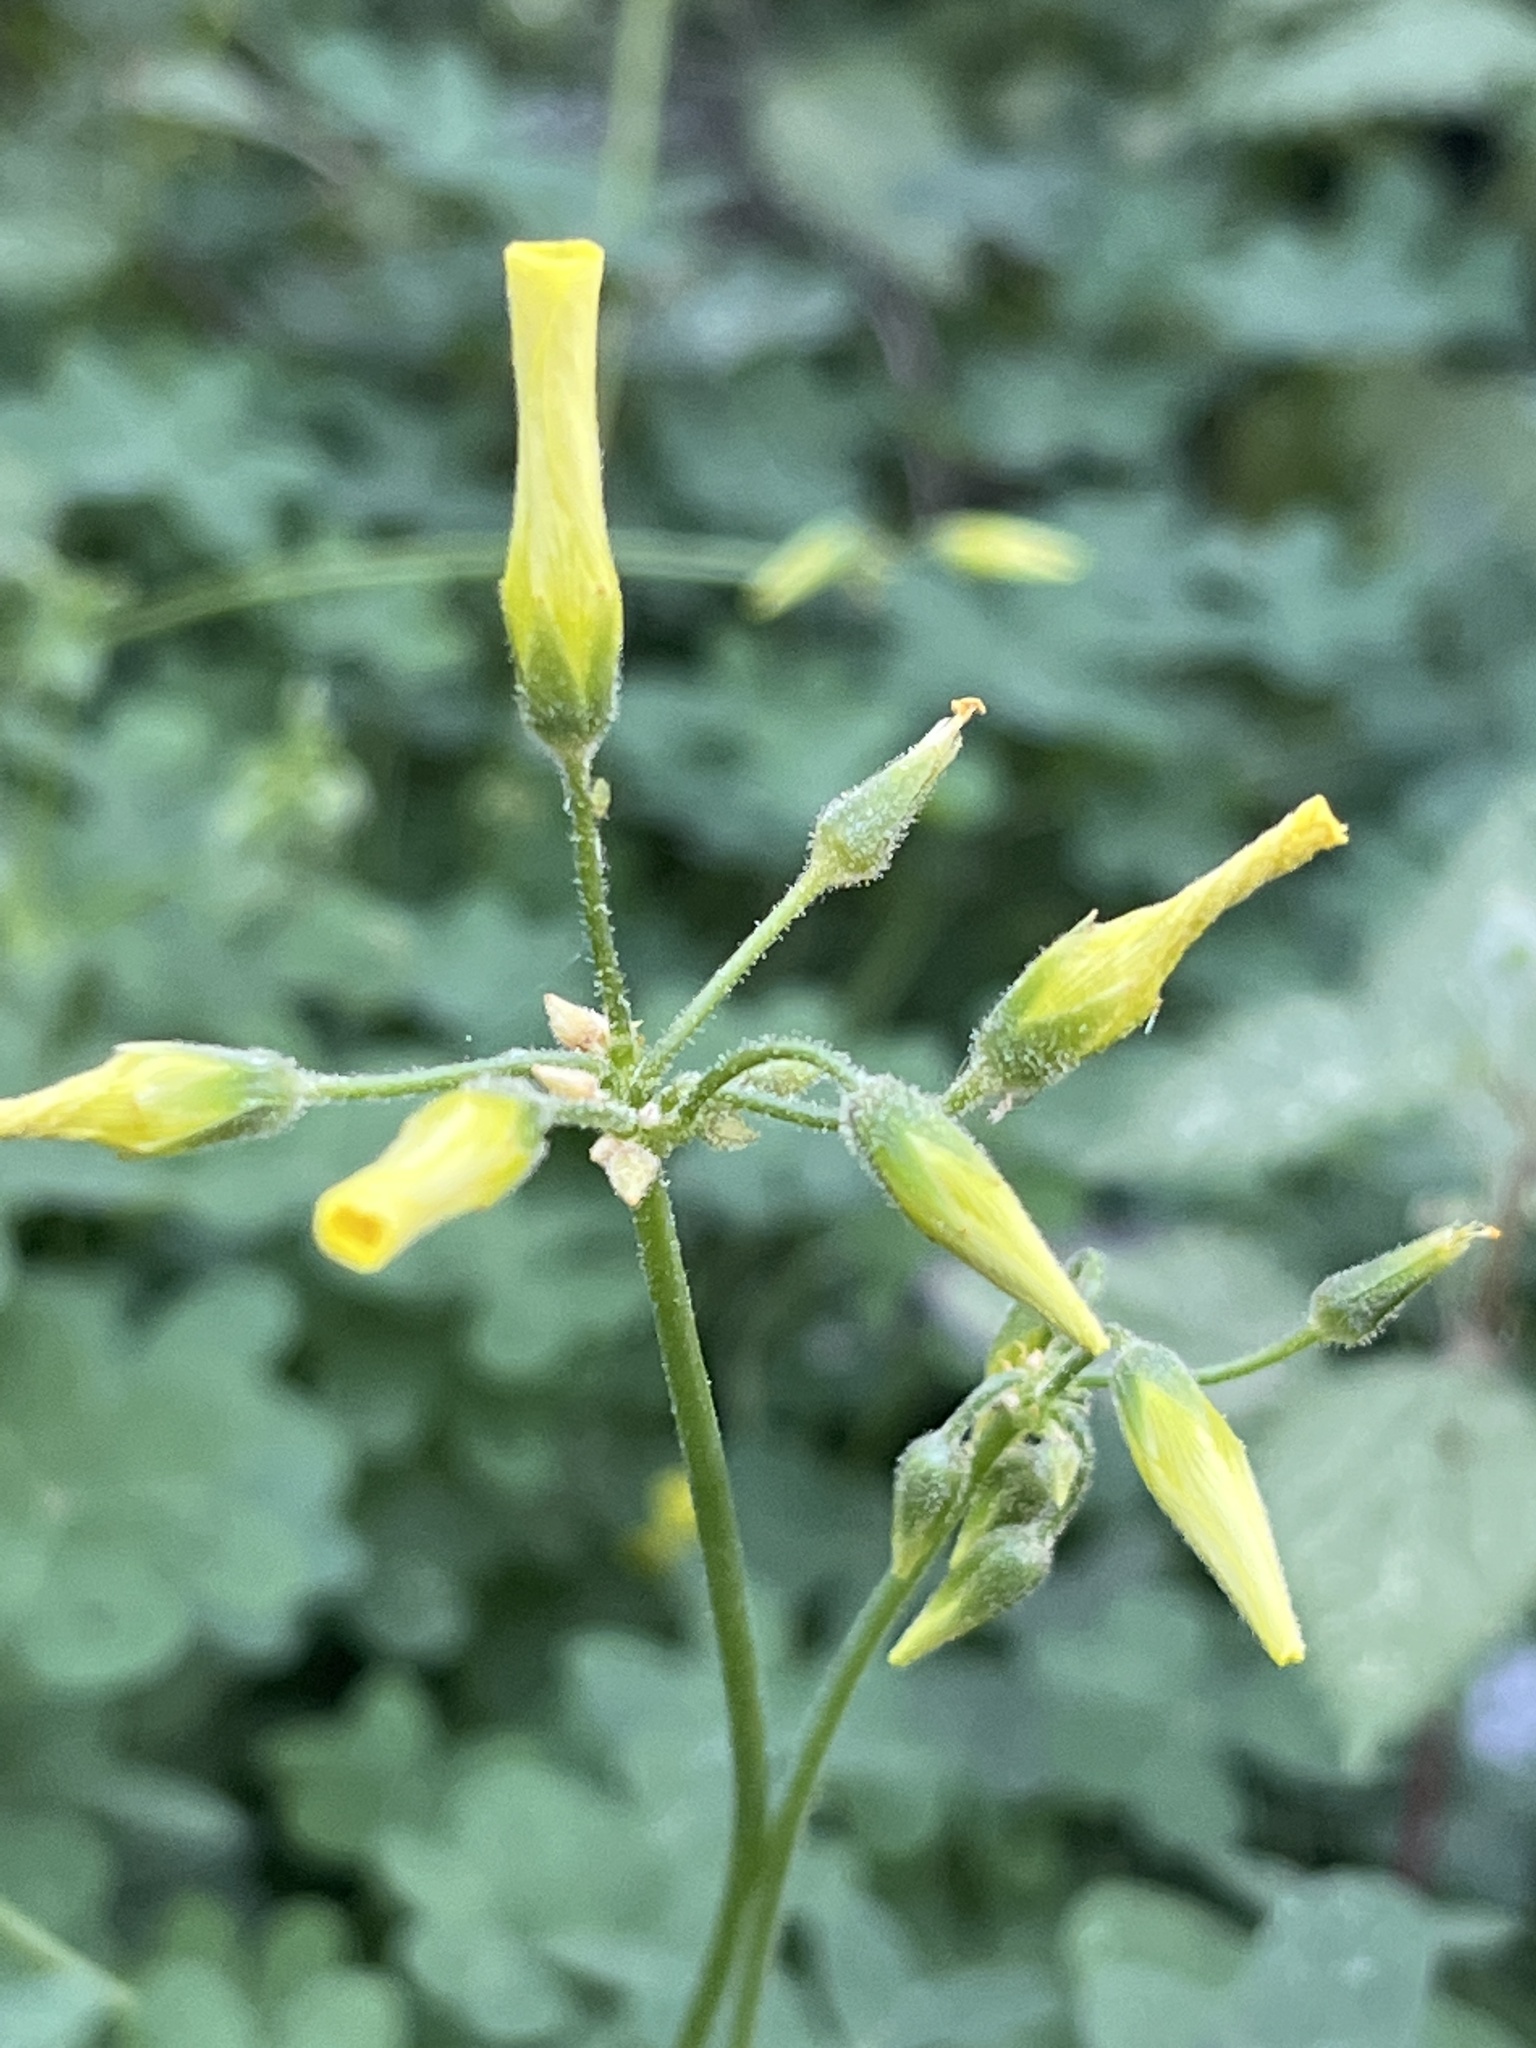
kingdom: Plantae
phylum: Tracheophyta
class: Magnoliopsida
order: Oxalidales
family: Oxalidaceae
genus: Oxalis
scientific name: Oxalis pes-caprae
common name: Bermuda-buttercup
